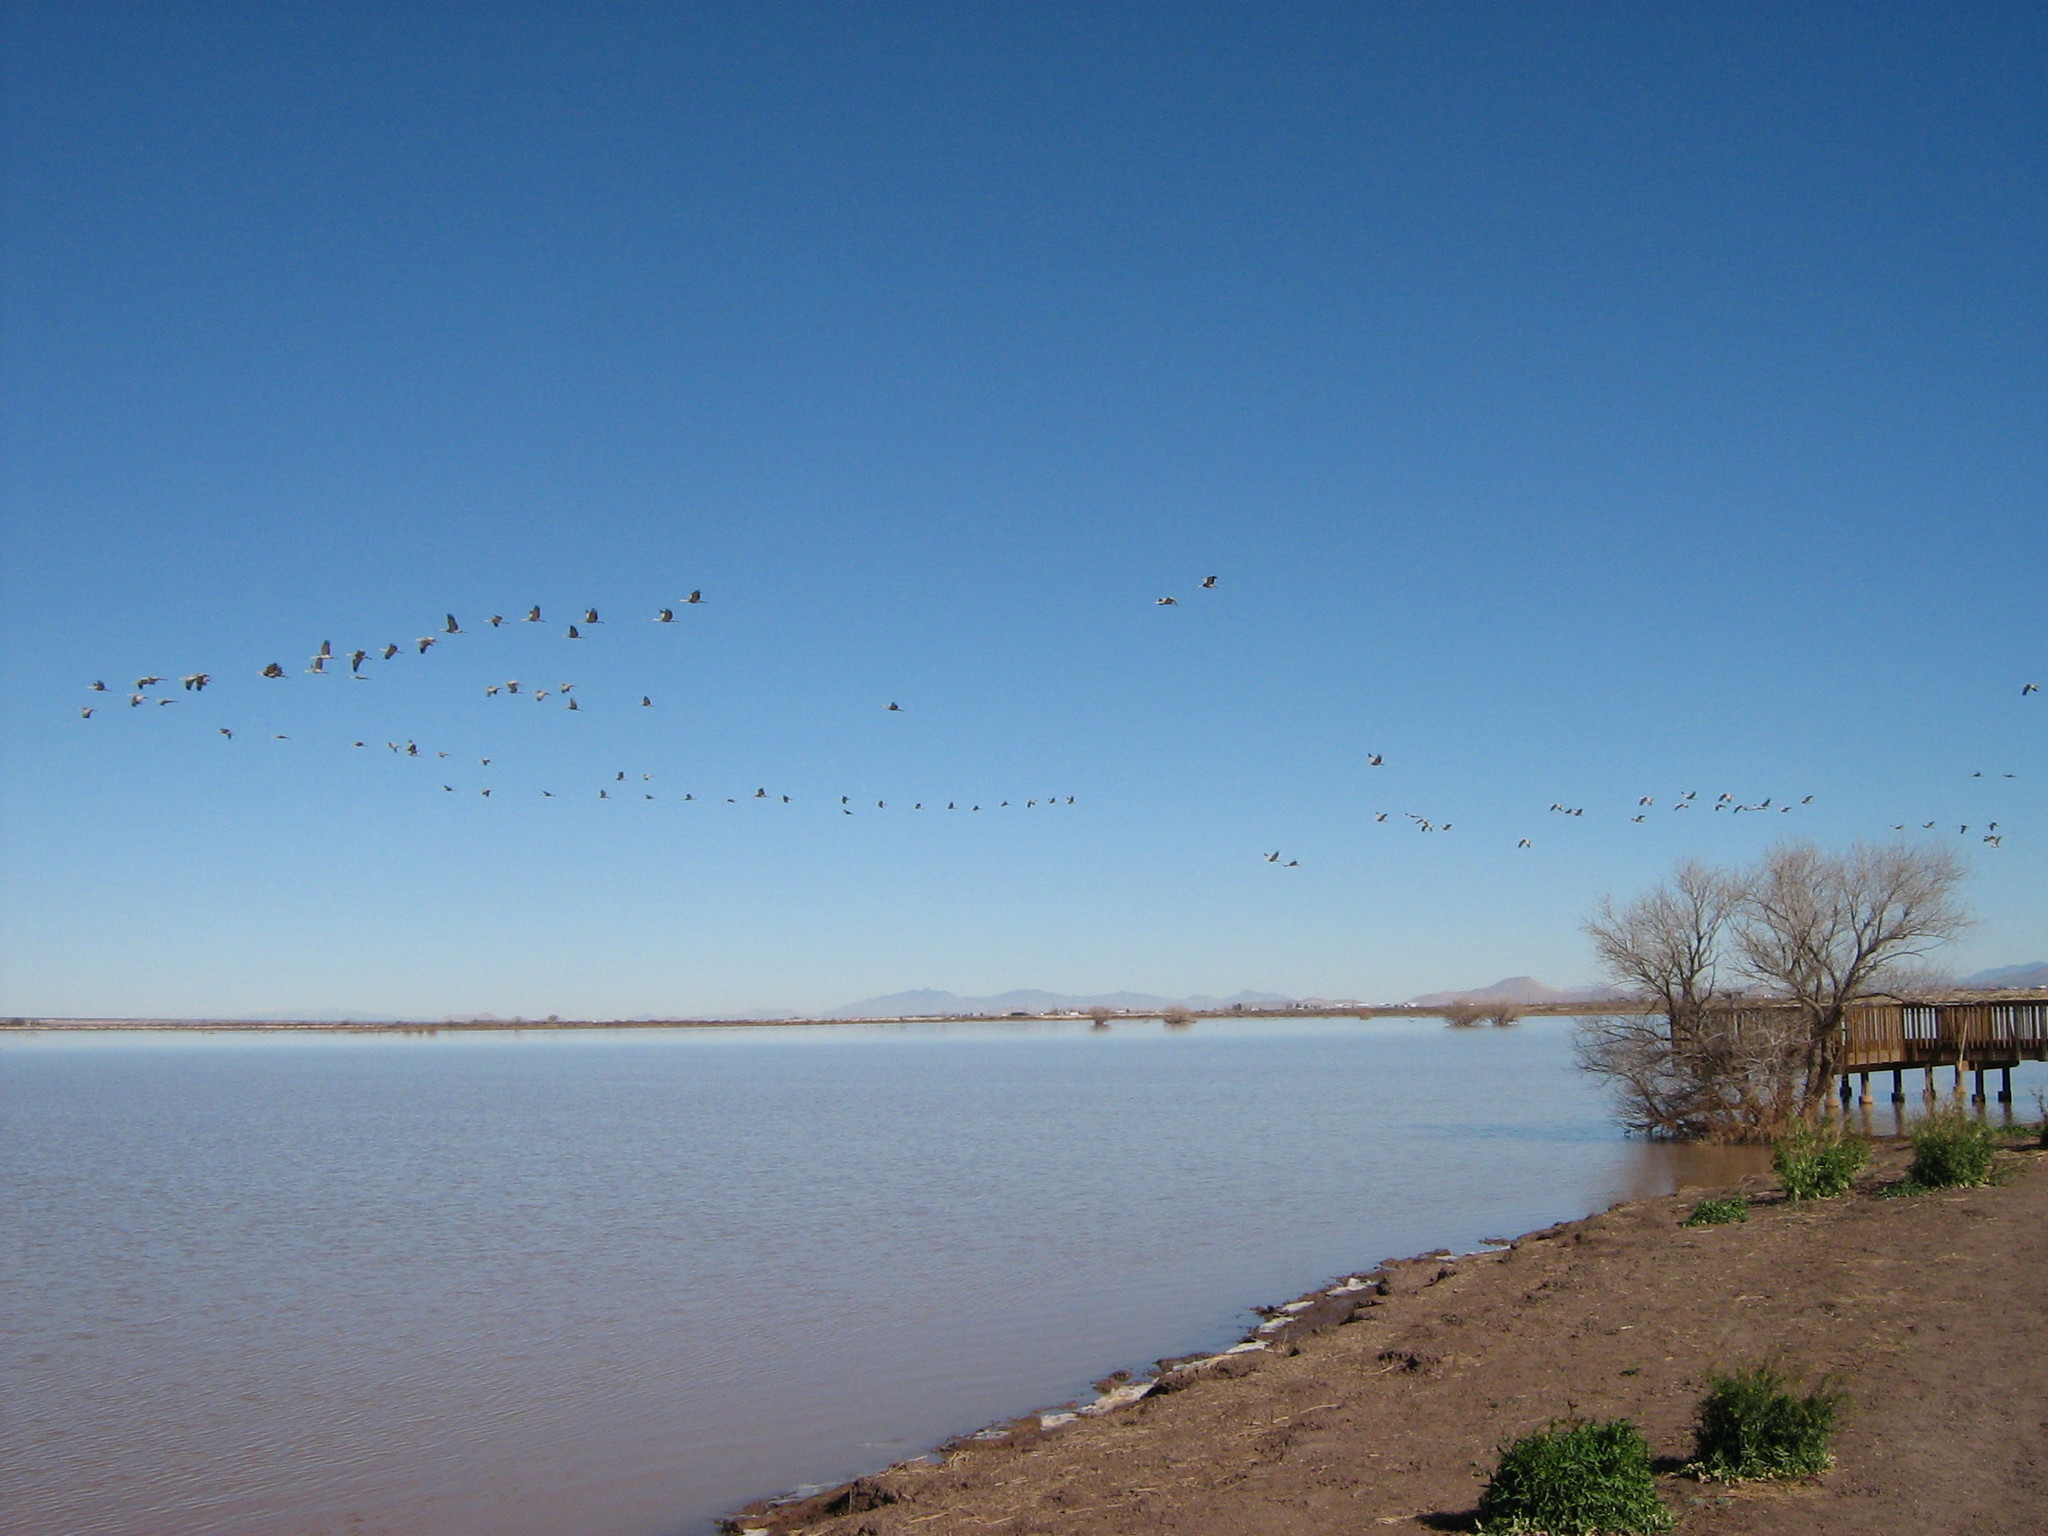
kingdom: Animalia
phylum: Chordata
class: Aves
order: Gruiformes
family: Gruidae
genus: Grus
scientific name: Grus canadensis
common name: Sandhill crane
